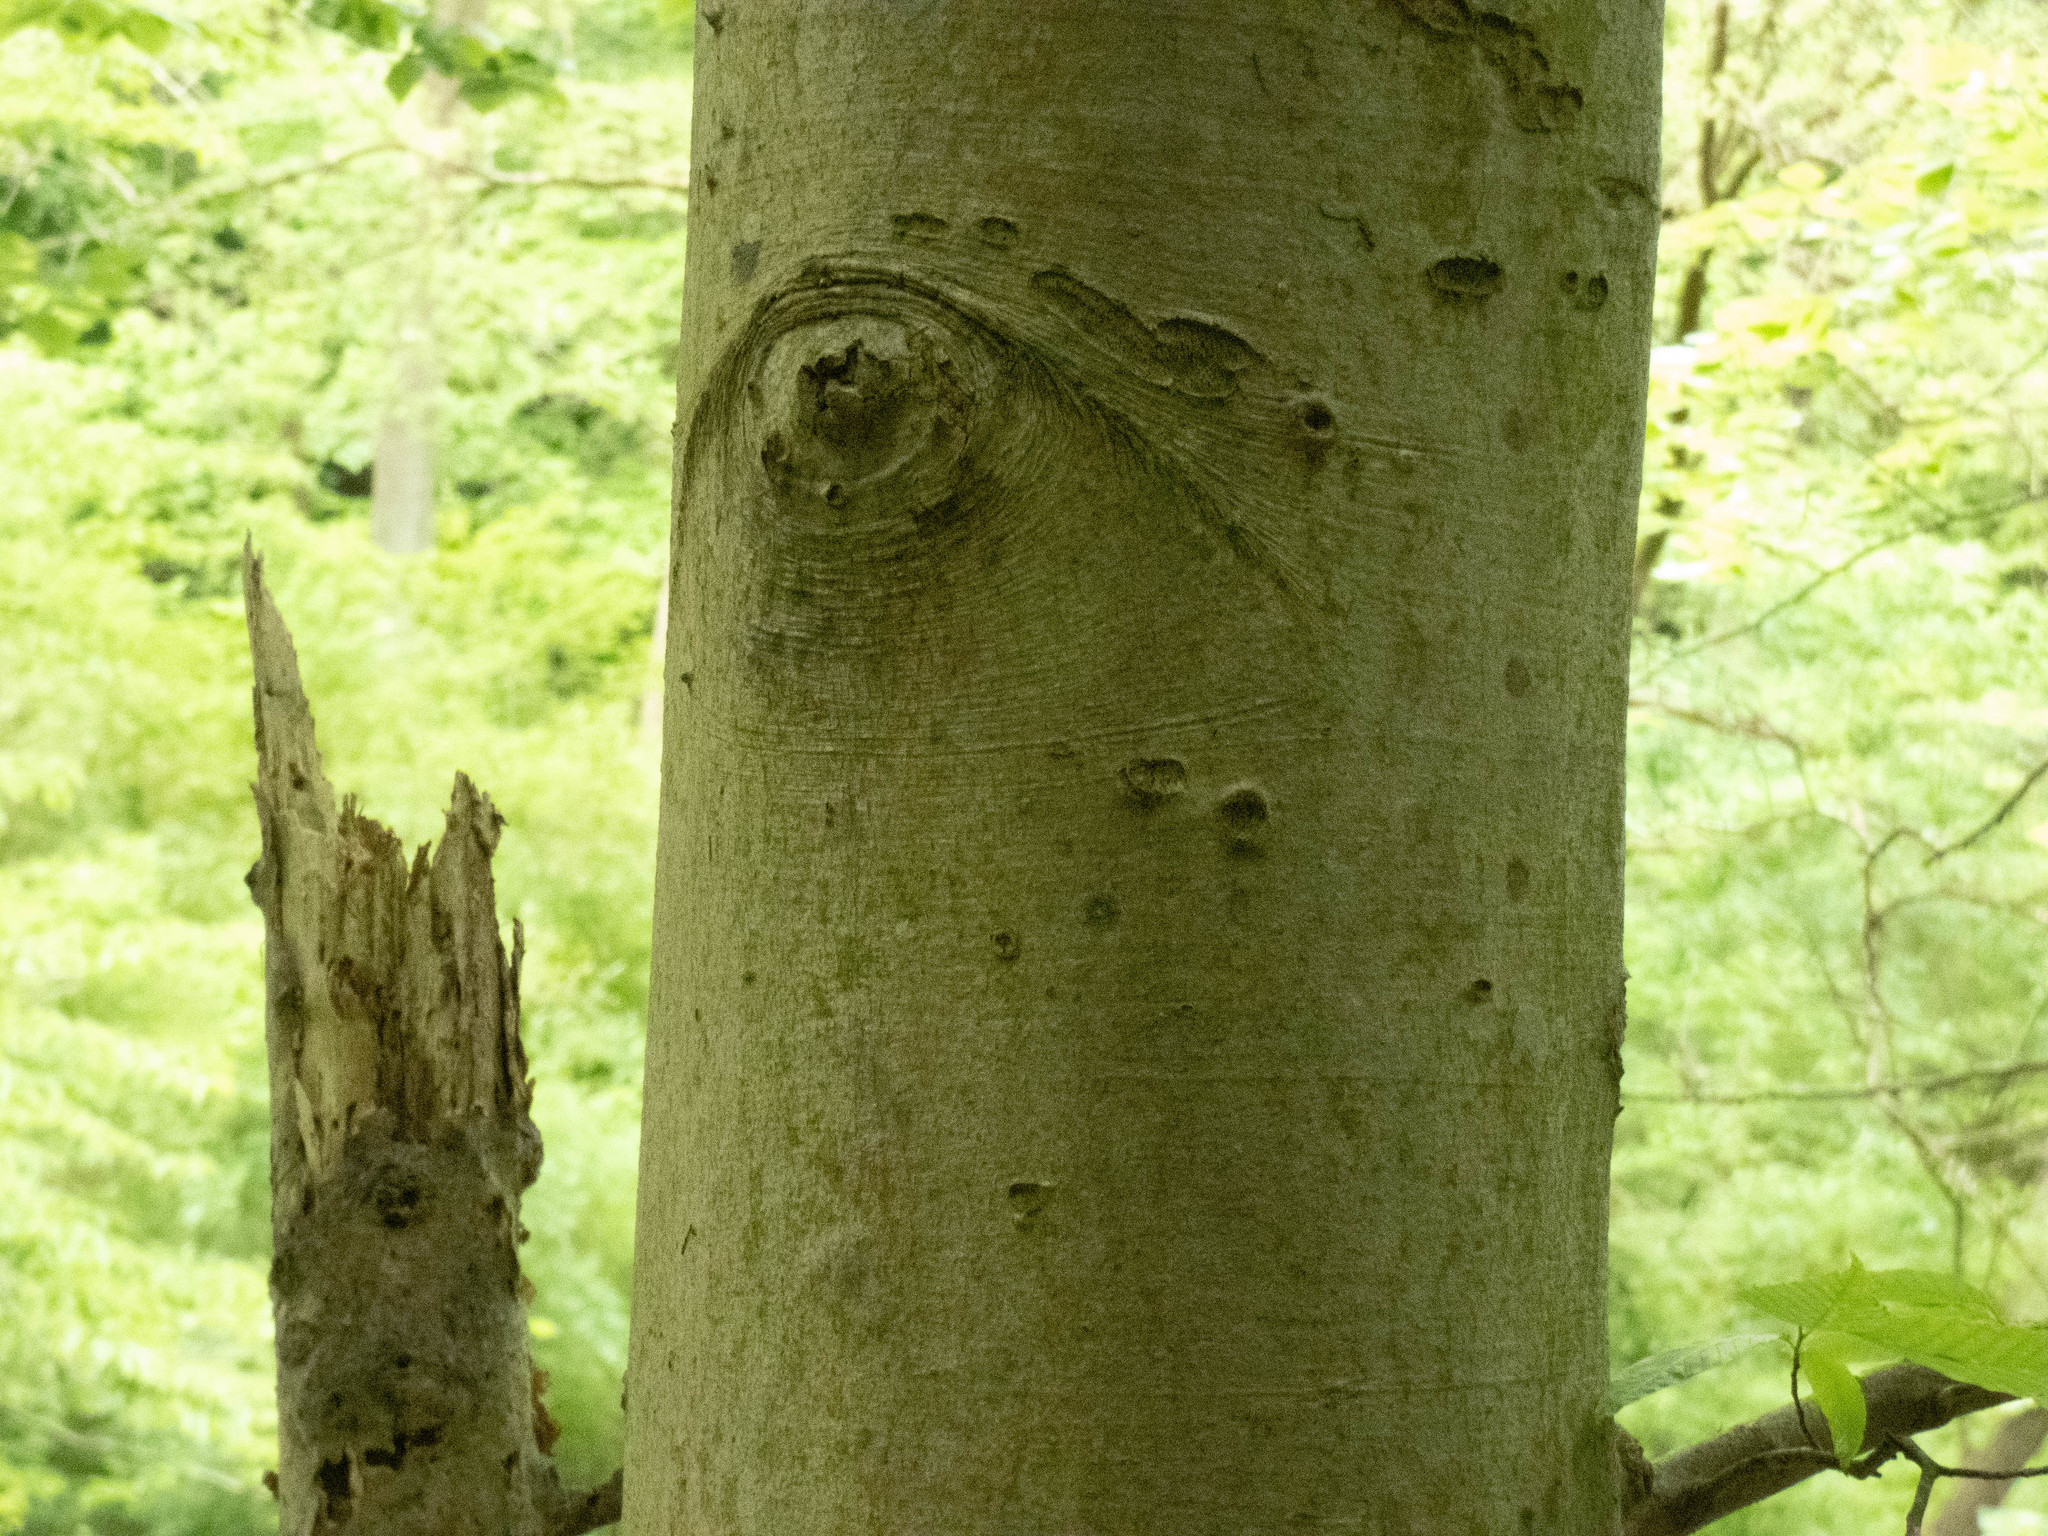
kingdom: Plantae
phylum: Tracheophyta
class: Magnoliopsida
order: Fagales
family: Fagaceae
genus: Fagus
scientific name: Fagus grandifolia
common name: American beech
